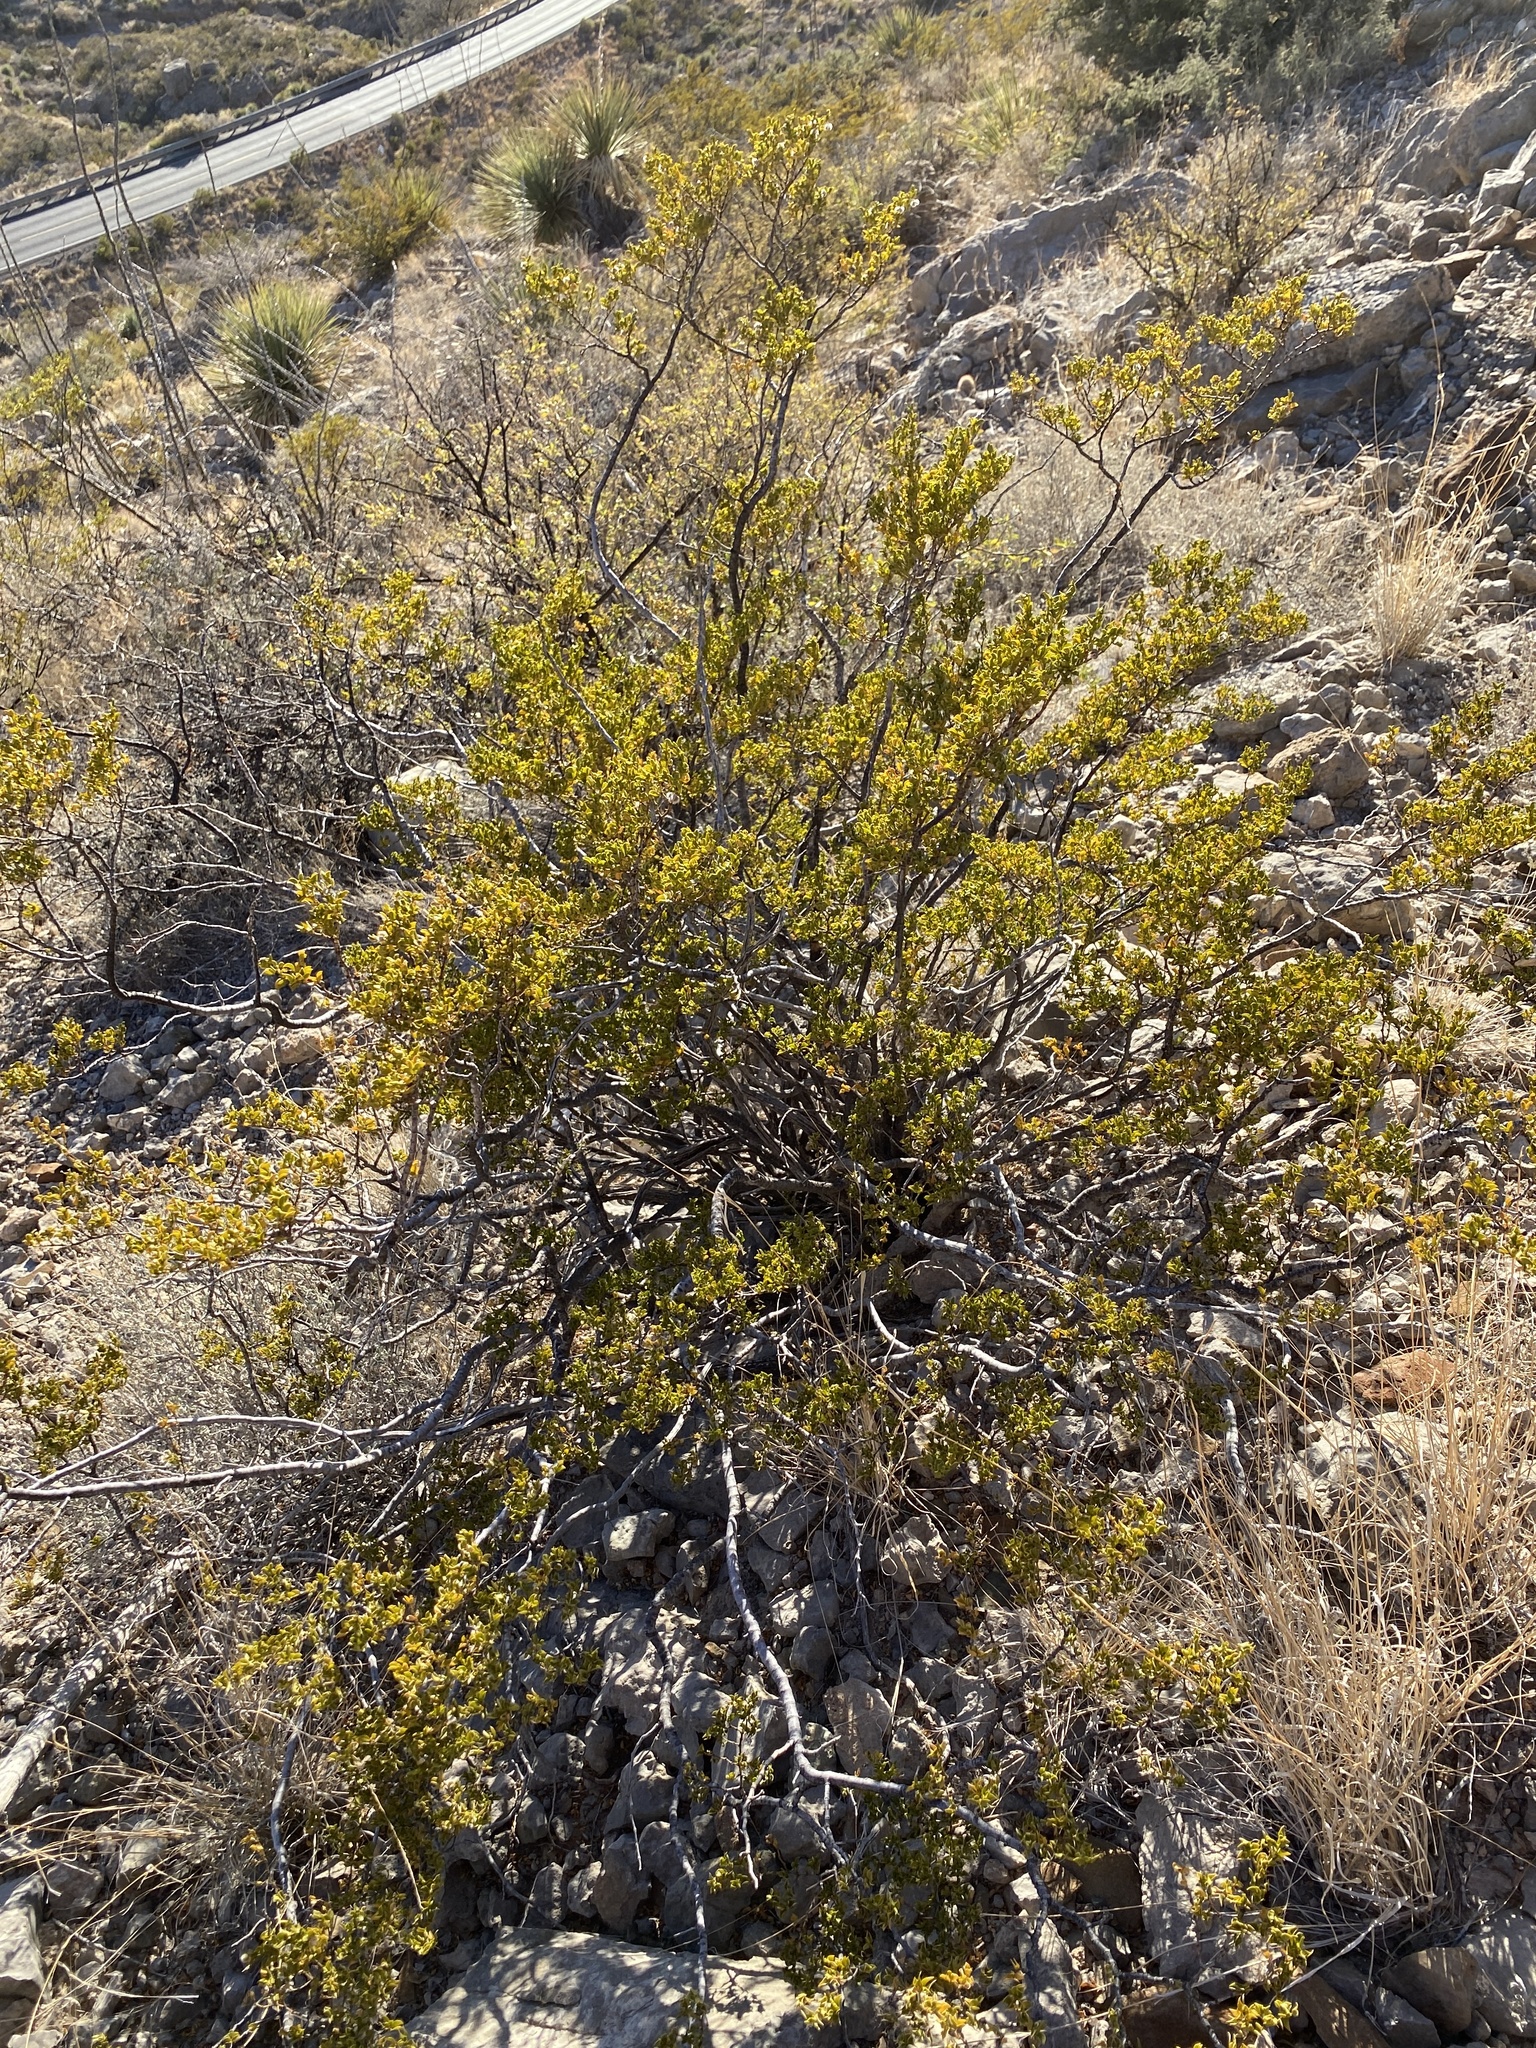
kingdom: Plantae
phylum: Tracheophyta
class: Magnoliopsida
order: Zygophyllales
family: Zygophyllaceae
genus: Larrea
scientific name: Larrea tridentata
